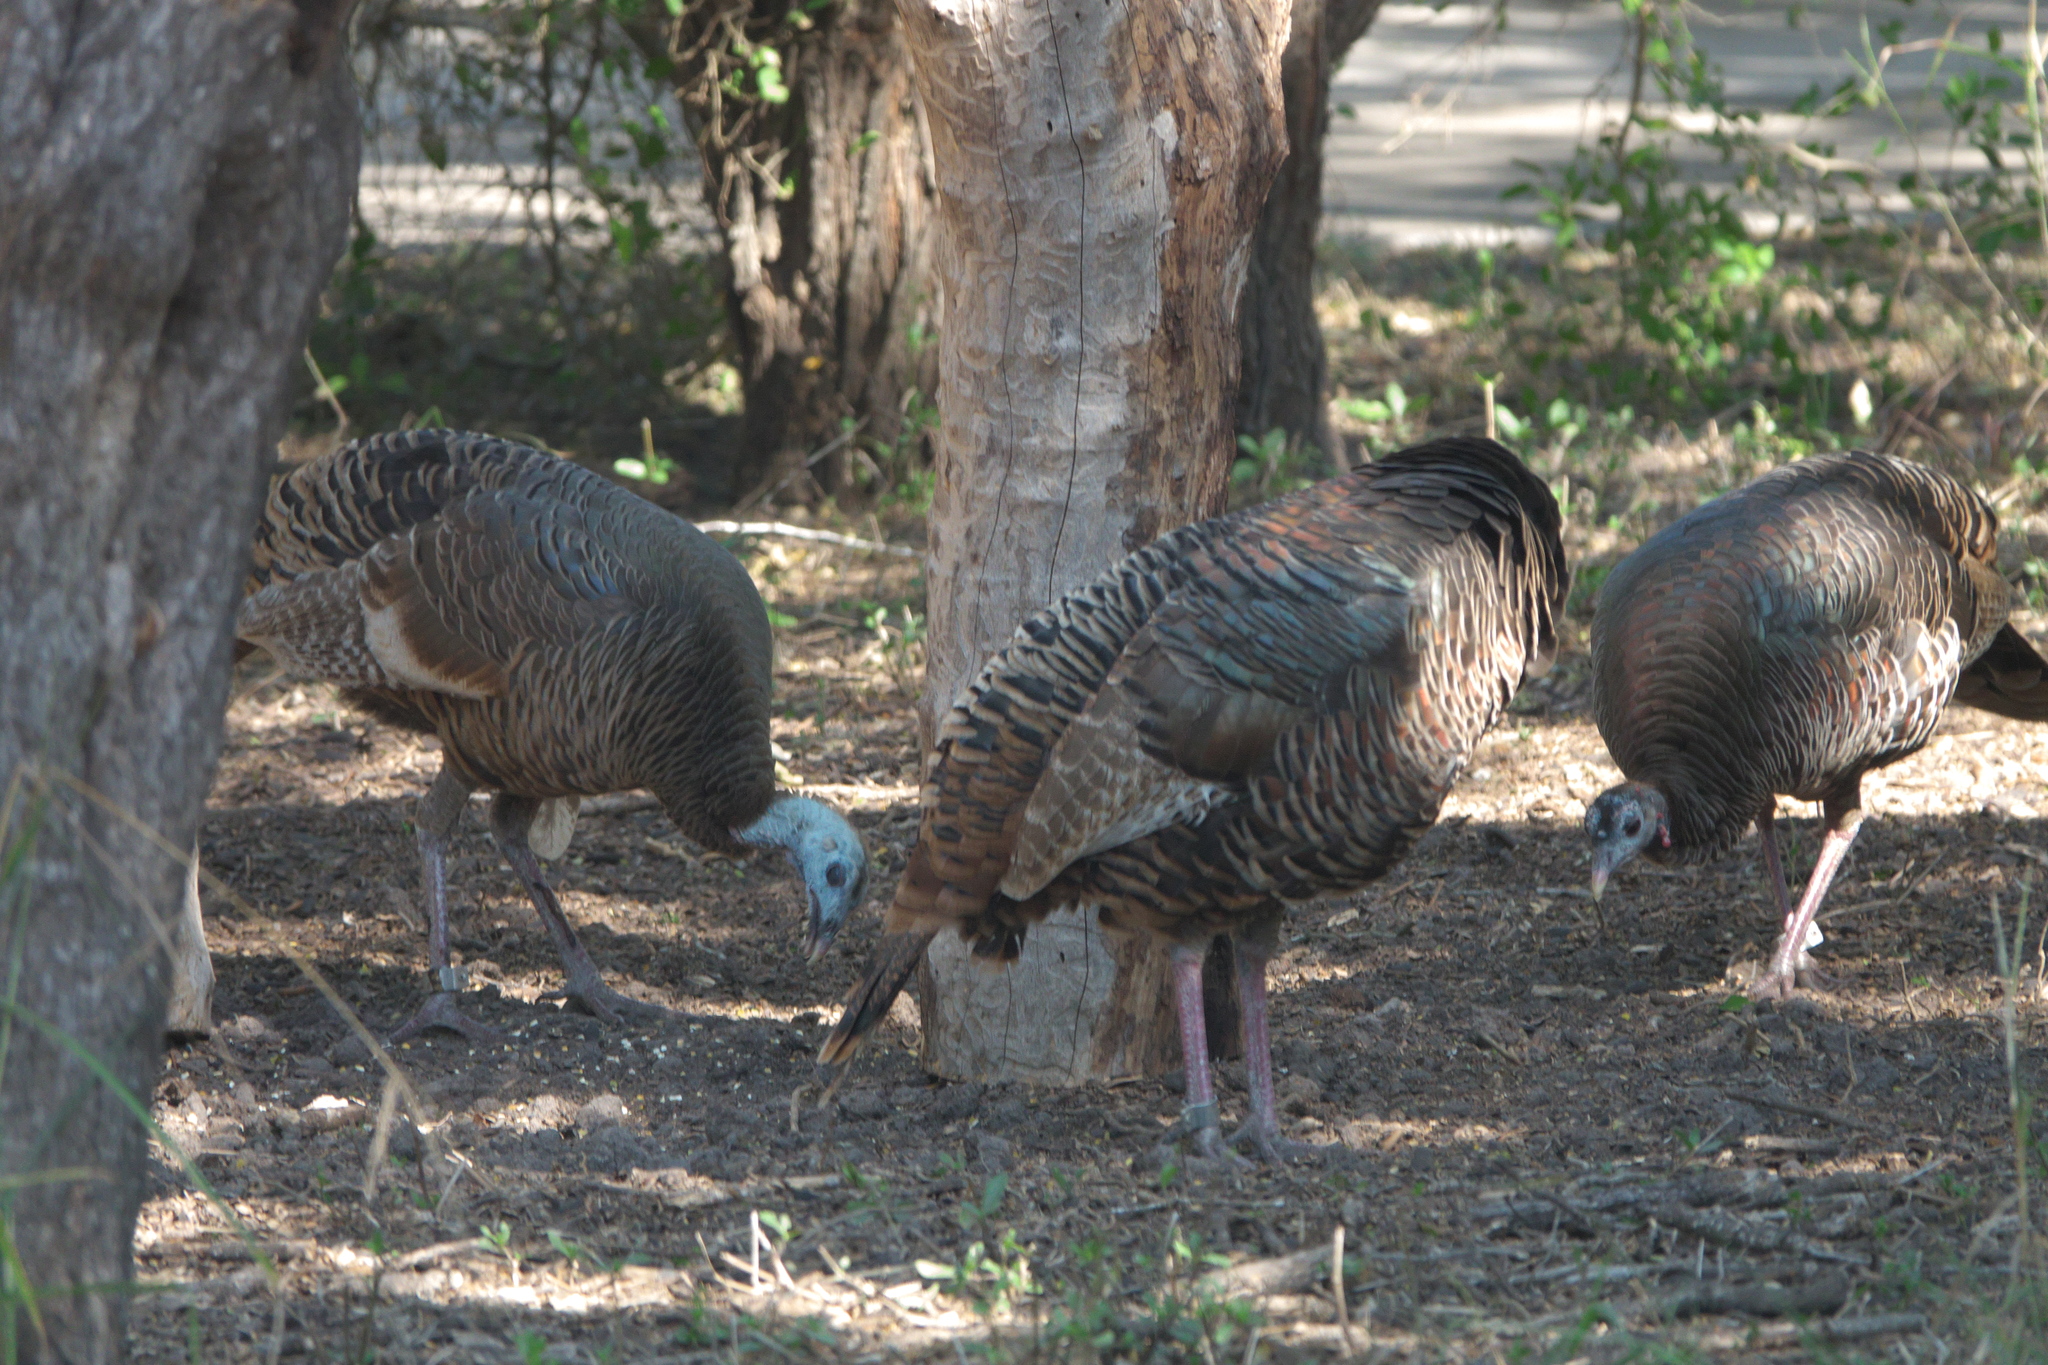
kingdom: Animalia
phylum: Chordata
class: Aves
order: Galliformes
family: Phasianidae
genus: Meleagris
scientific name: Meleagris gallopavo
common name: Wild turkey
